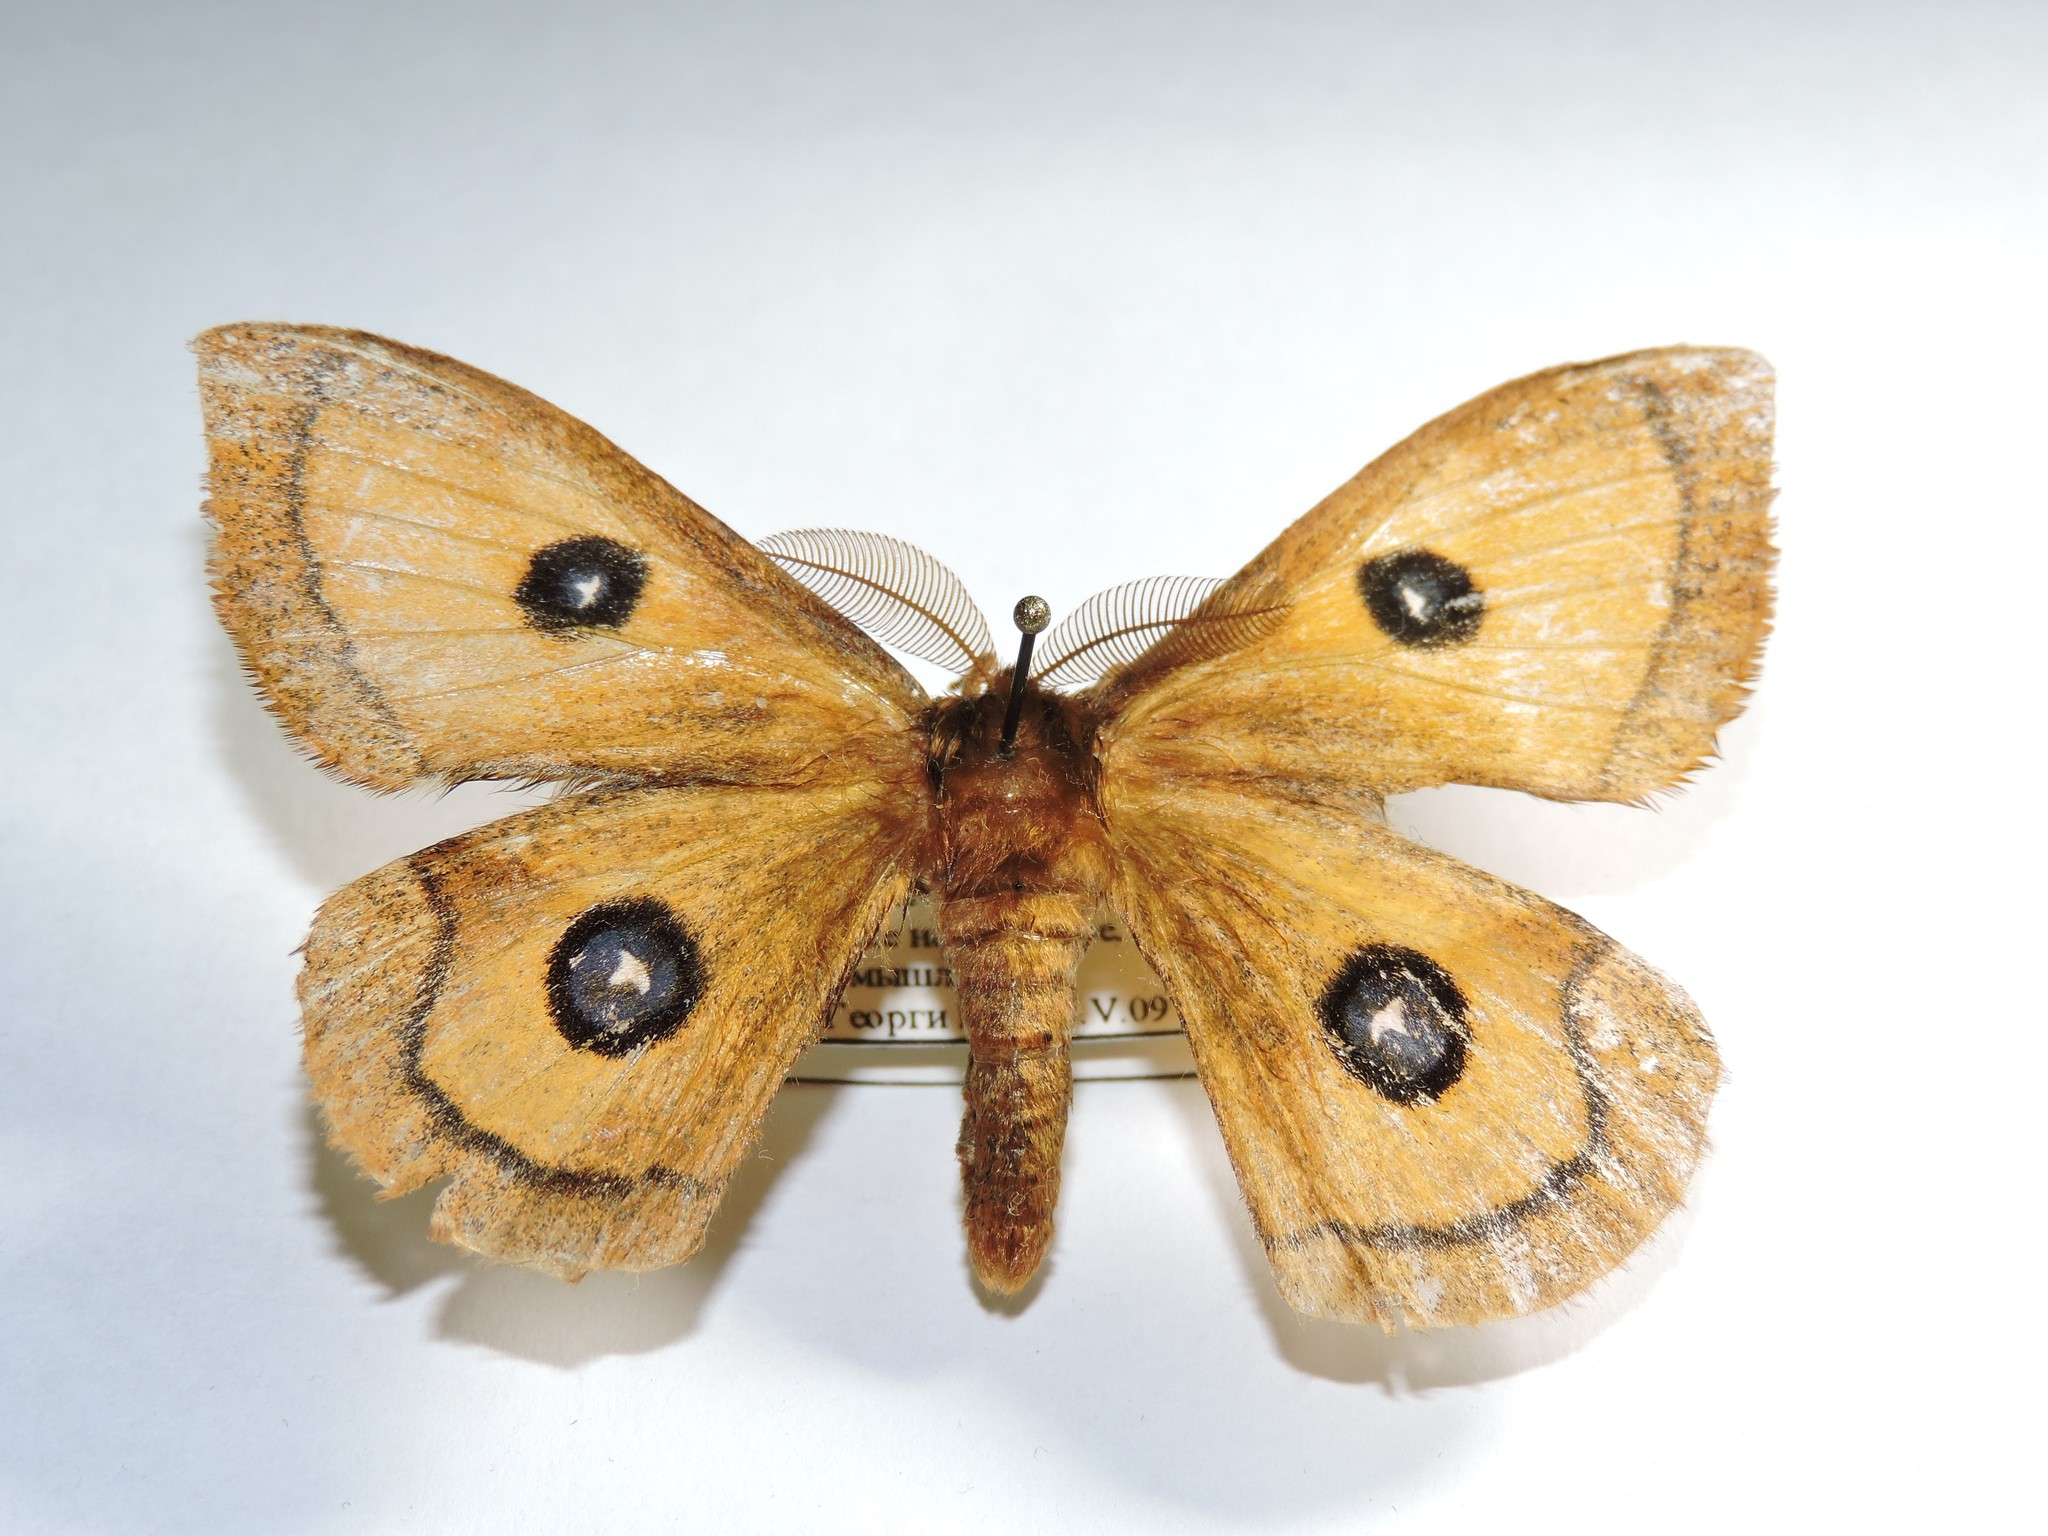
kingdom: Animalia
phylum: Arthropoda
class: Insecta
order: Lepidoptera
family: Saturniidae
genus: Aglia
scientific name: Aglia tau
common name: Tau emperor
